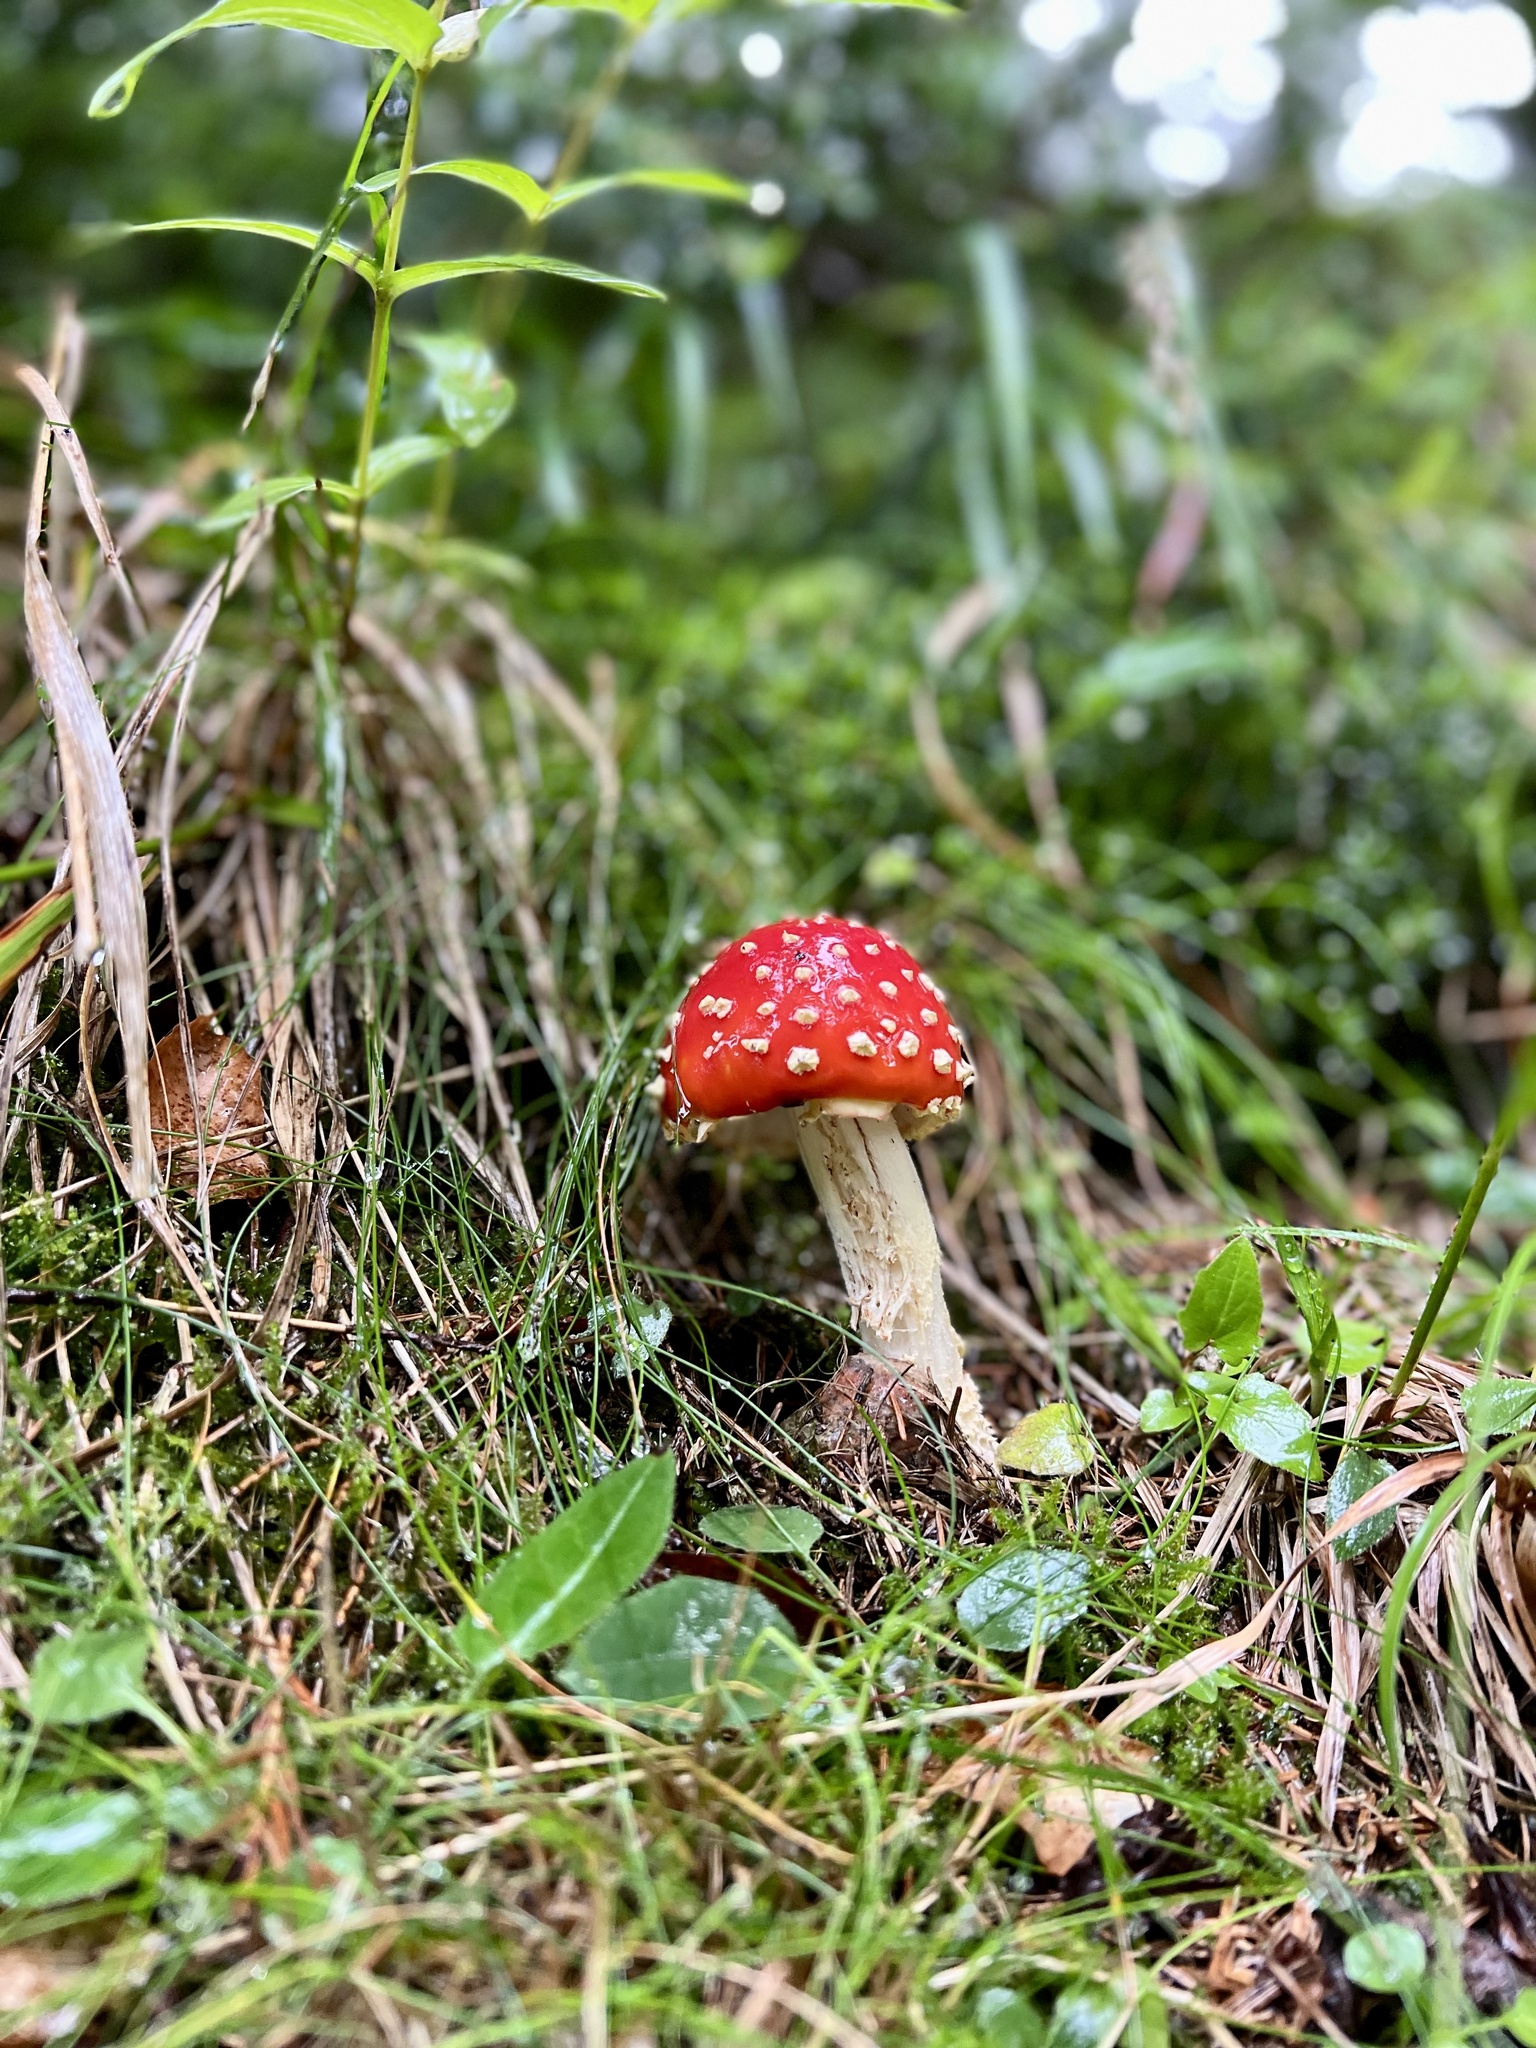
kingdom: Fungi
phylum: Basidiomycota
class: Agaricomycetes
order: Agaricales
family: Amanitaceae
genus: Amanita
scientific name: Amanita muscaria
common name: Fly agaric
